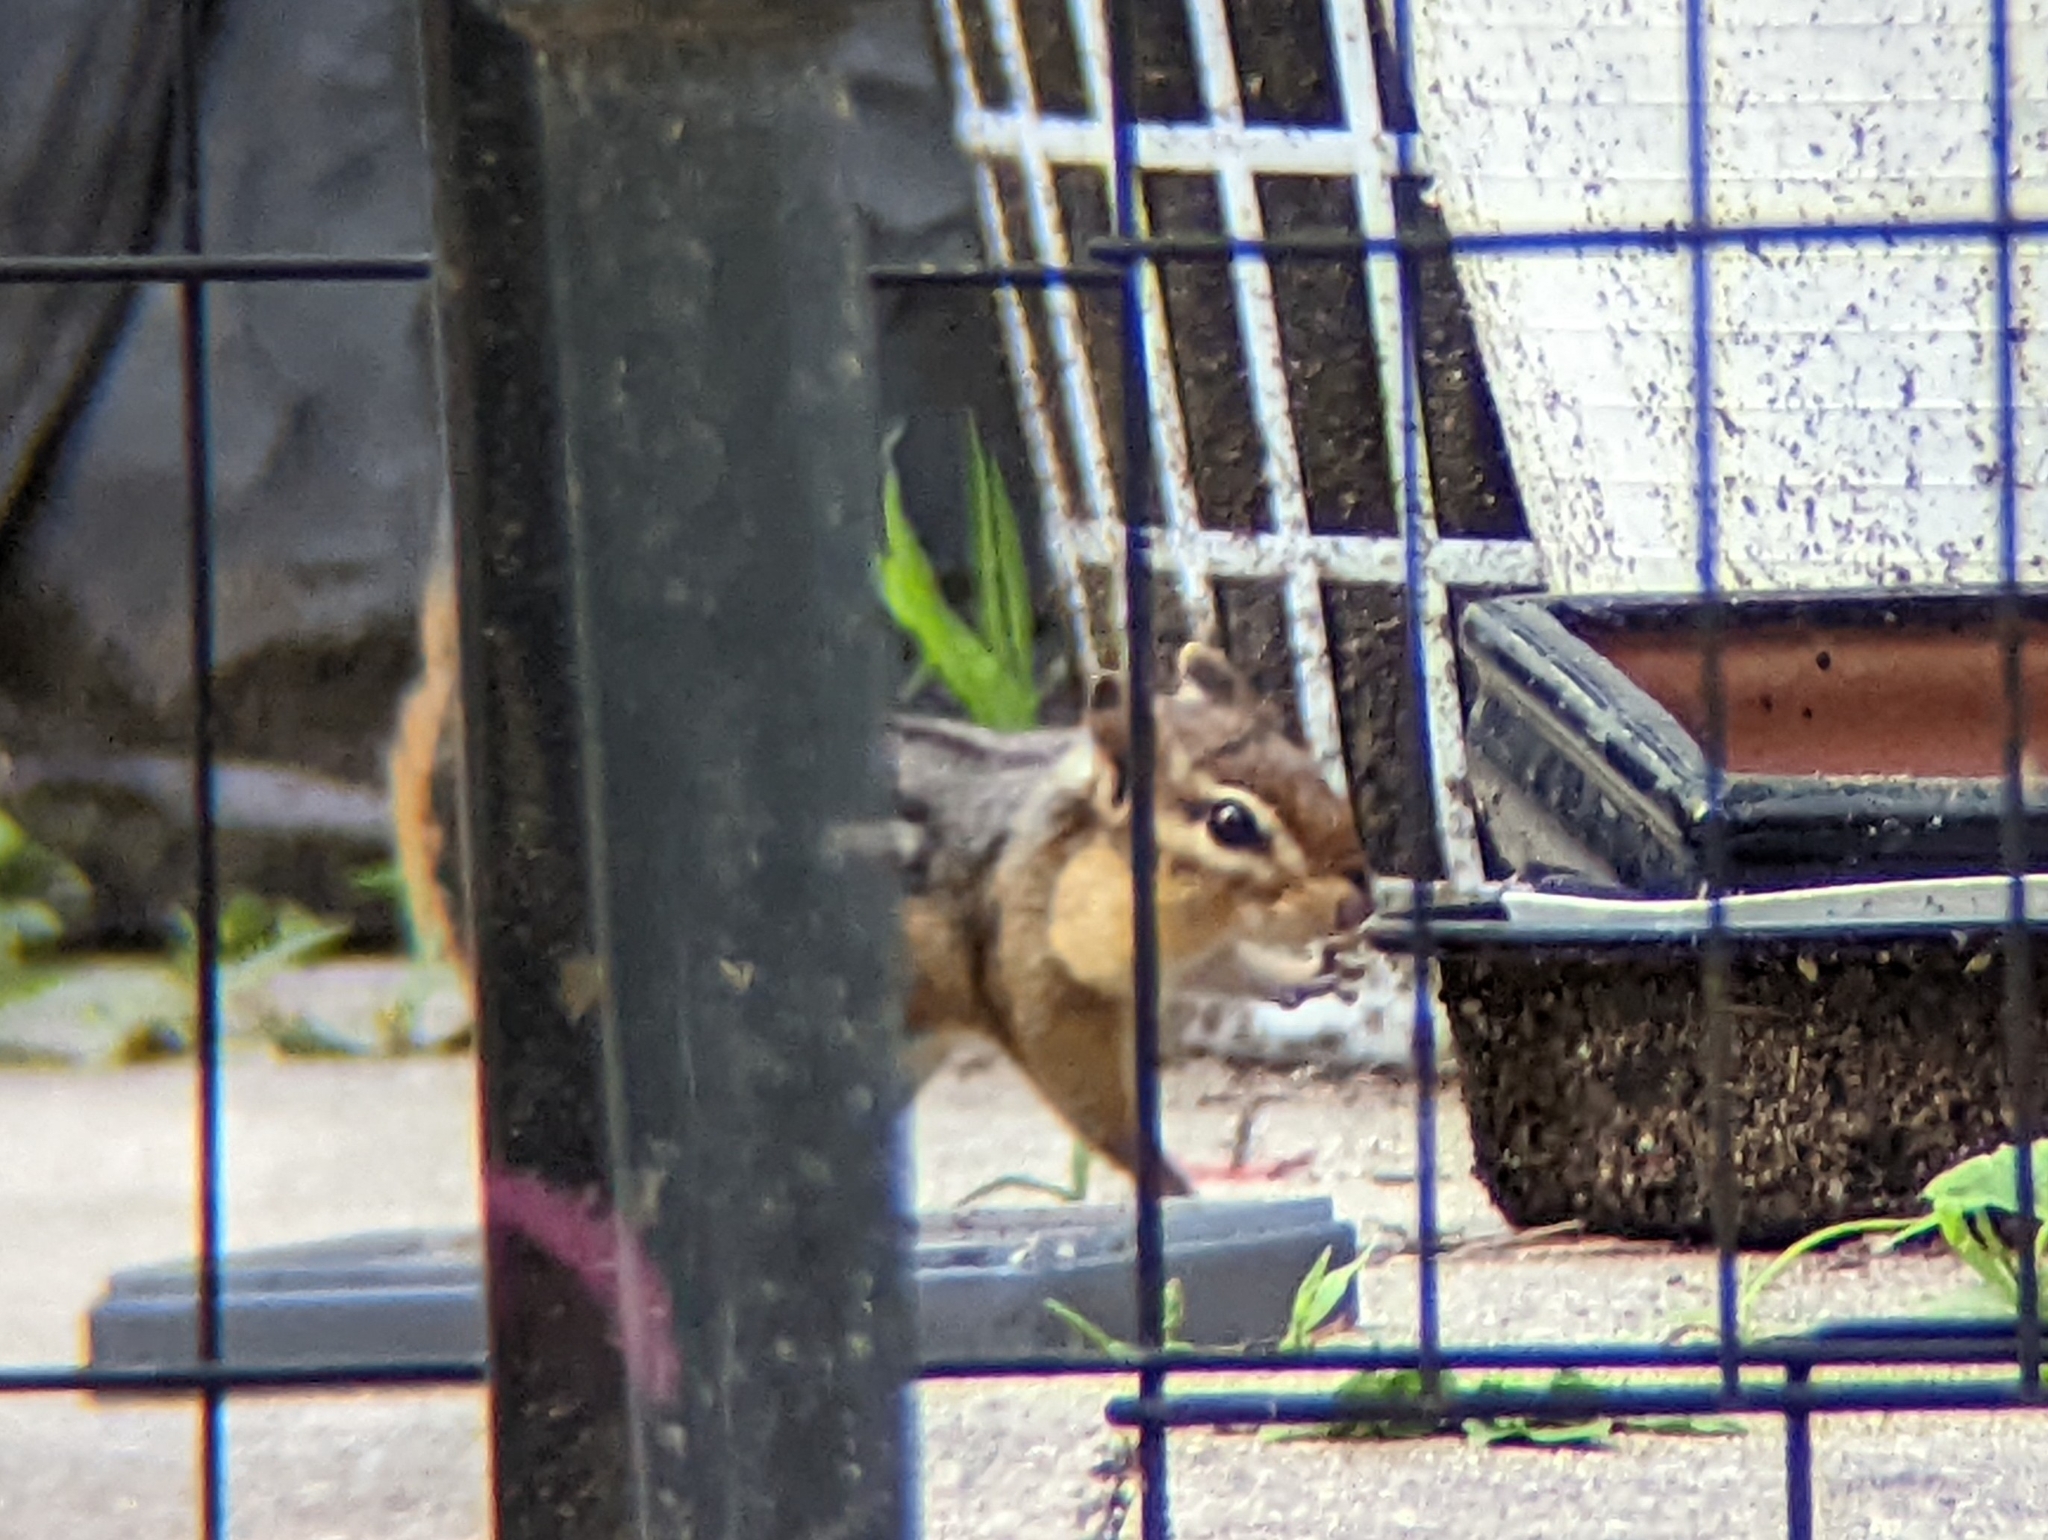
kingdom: Animalia
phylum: Chordata
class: Mammalia
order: Rodentia
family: Sciuridae
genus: Tamias
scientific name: Tamias striatus
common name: Eastern chipmunk
